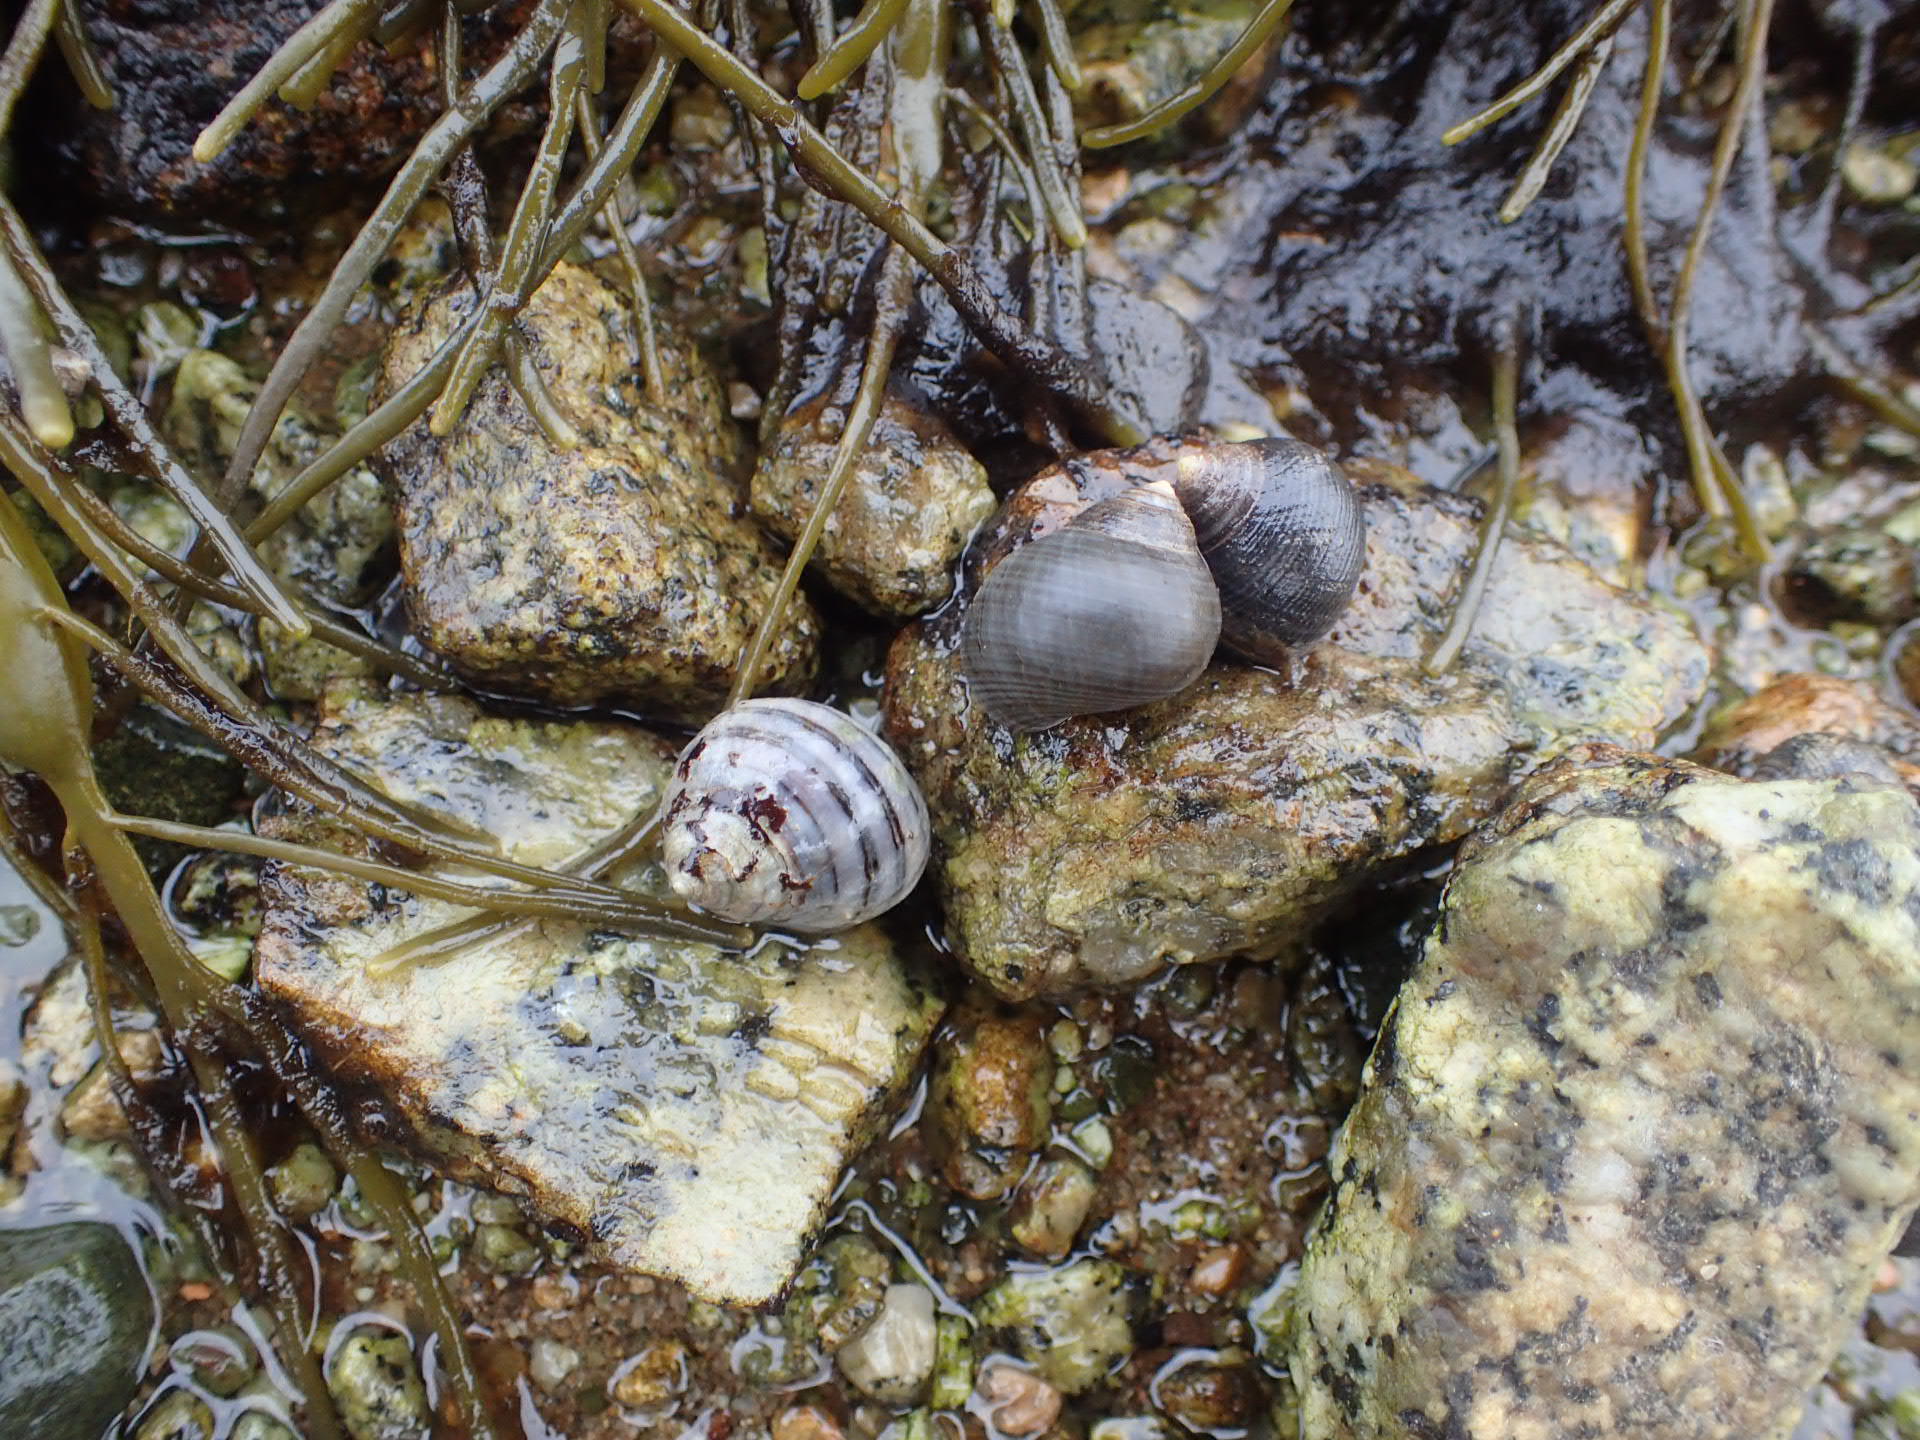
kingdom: Animalia
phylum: Mollusca
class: Gastropoda
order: Littorinimorpha
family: Littorinidae
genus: Littorina
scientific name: Littorina littorea
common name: Common periwinkle
